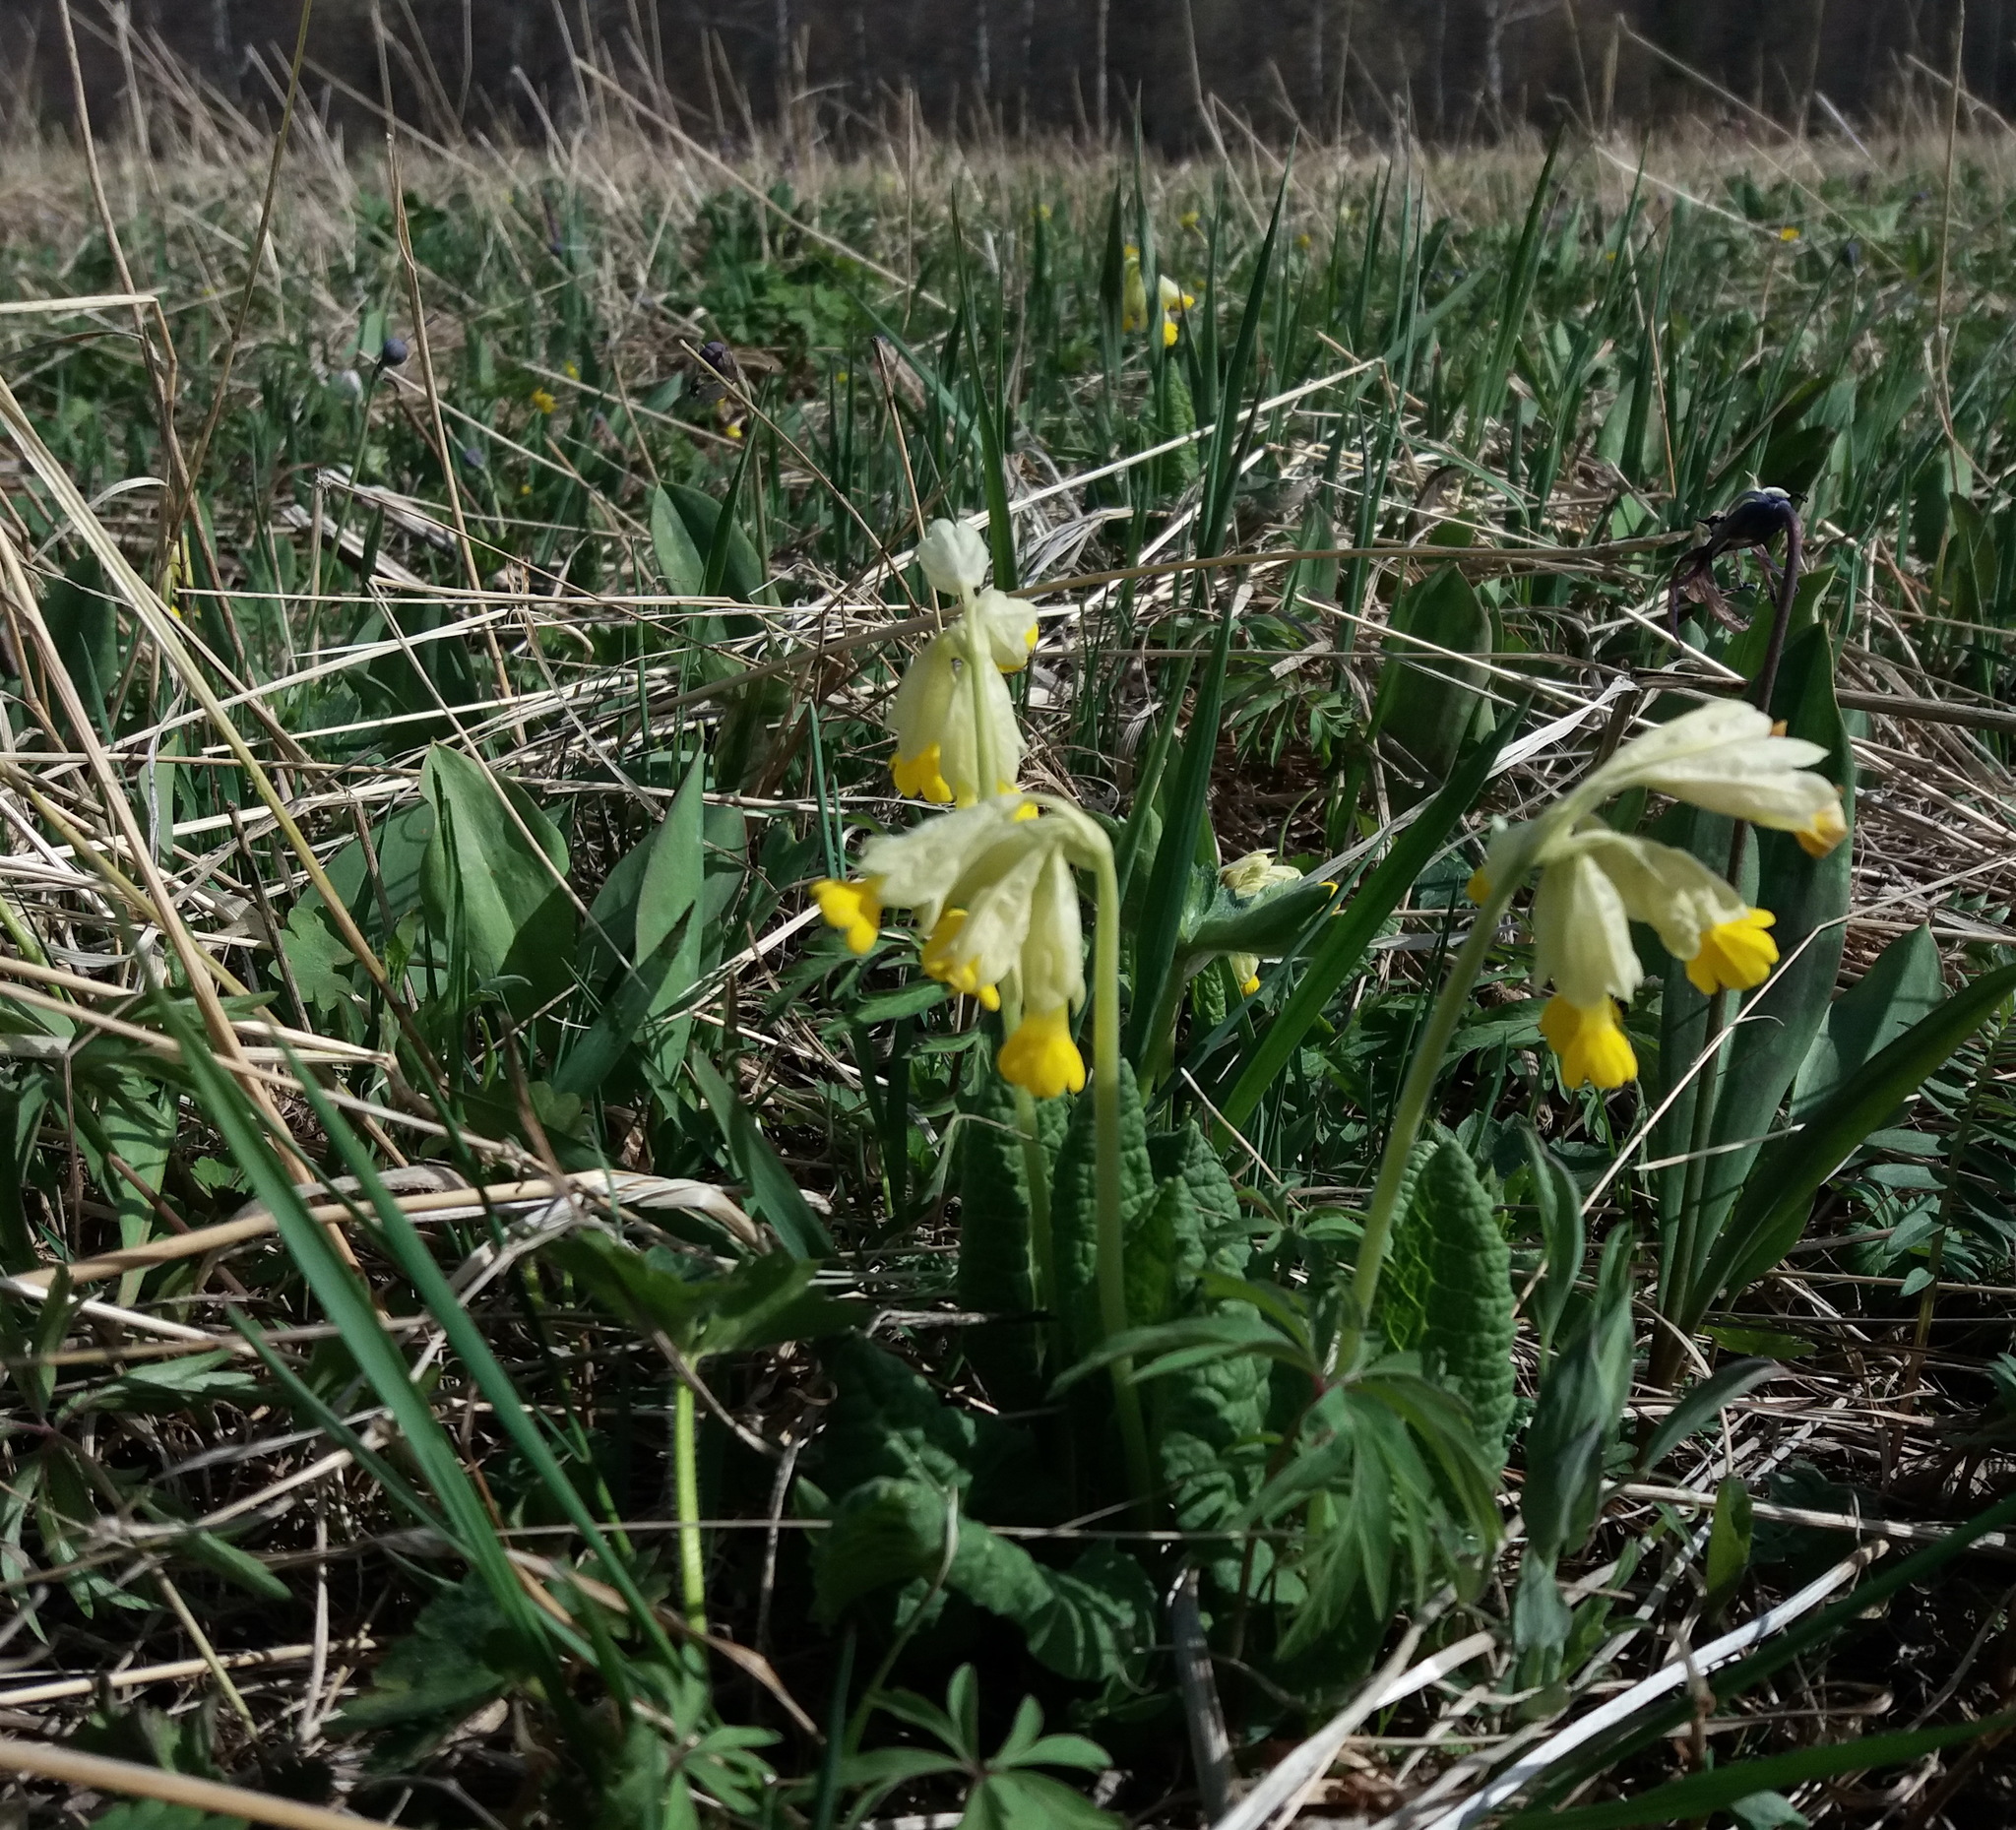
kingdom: Plantae
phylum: Tracheophyta
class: Magnoliopsida
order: Ericales
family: Primulaceae
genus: Primula
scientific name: Primula veris
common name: Cowslip
